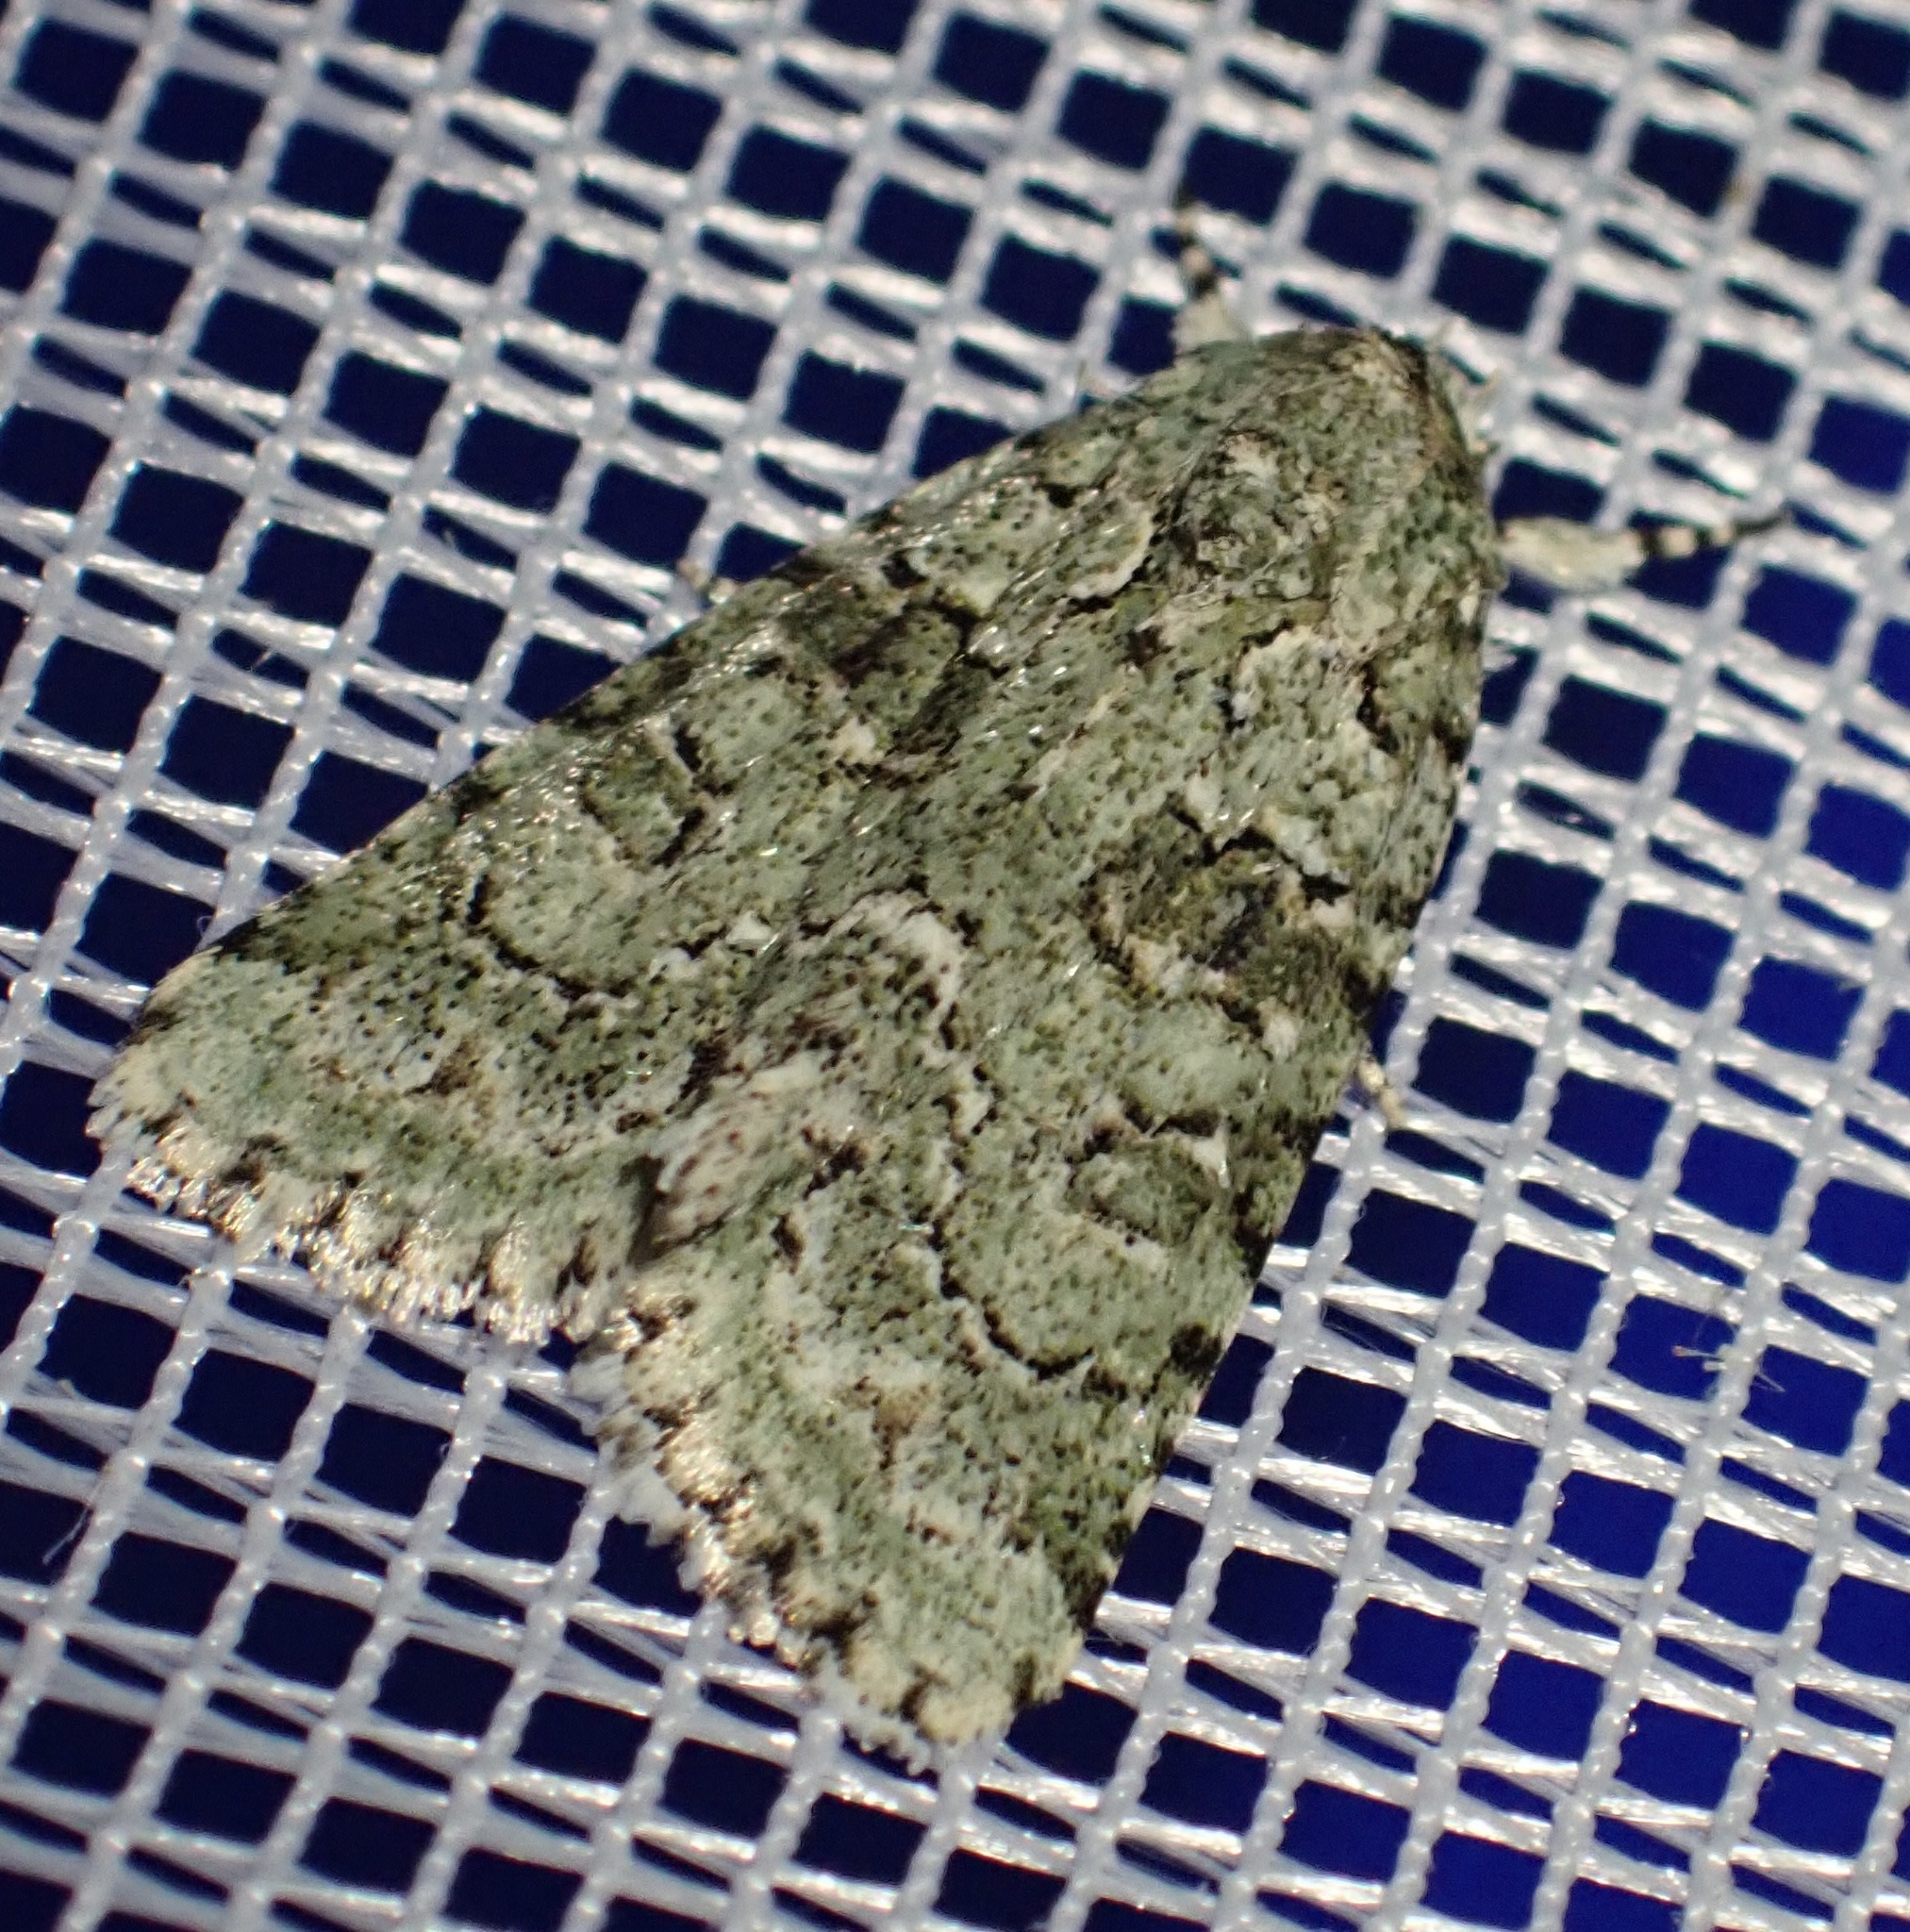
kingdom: Animalia
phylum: Arthropoda
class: Insecta
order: Lepidoptera
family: Noctuidae
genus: Nyctobrya
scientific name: Nyctobrya muralis
